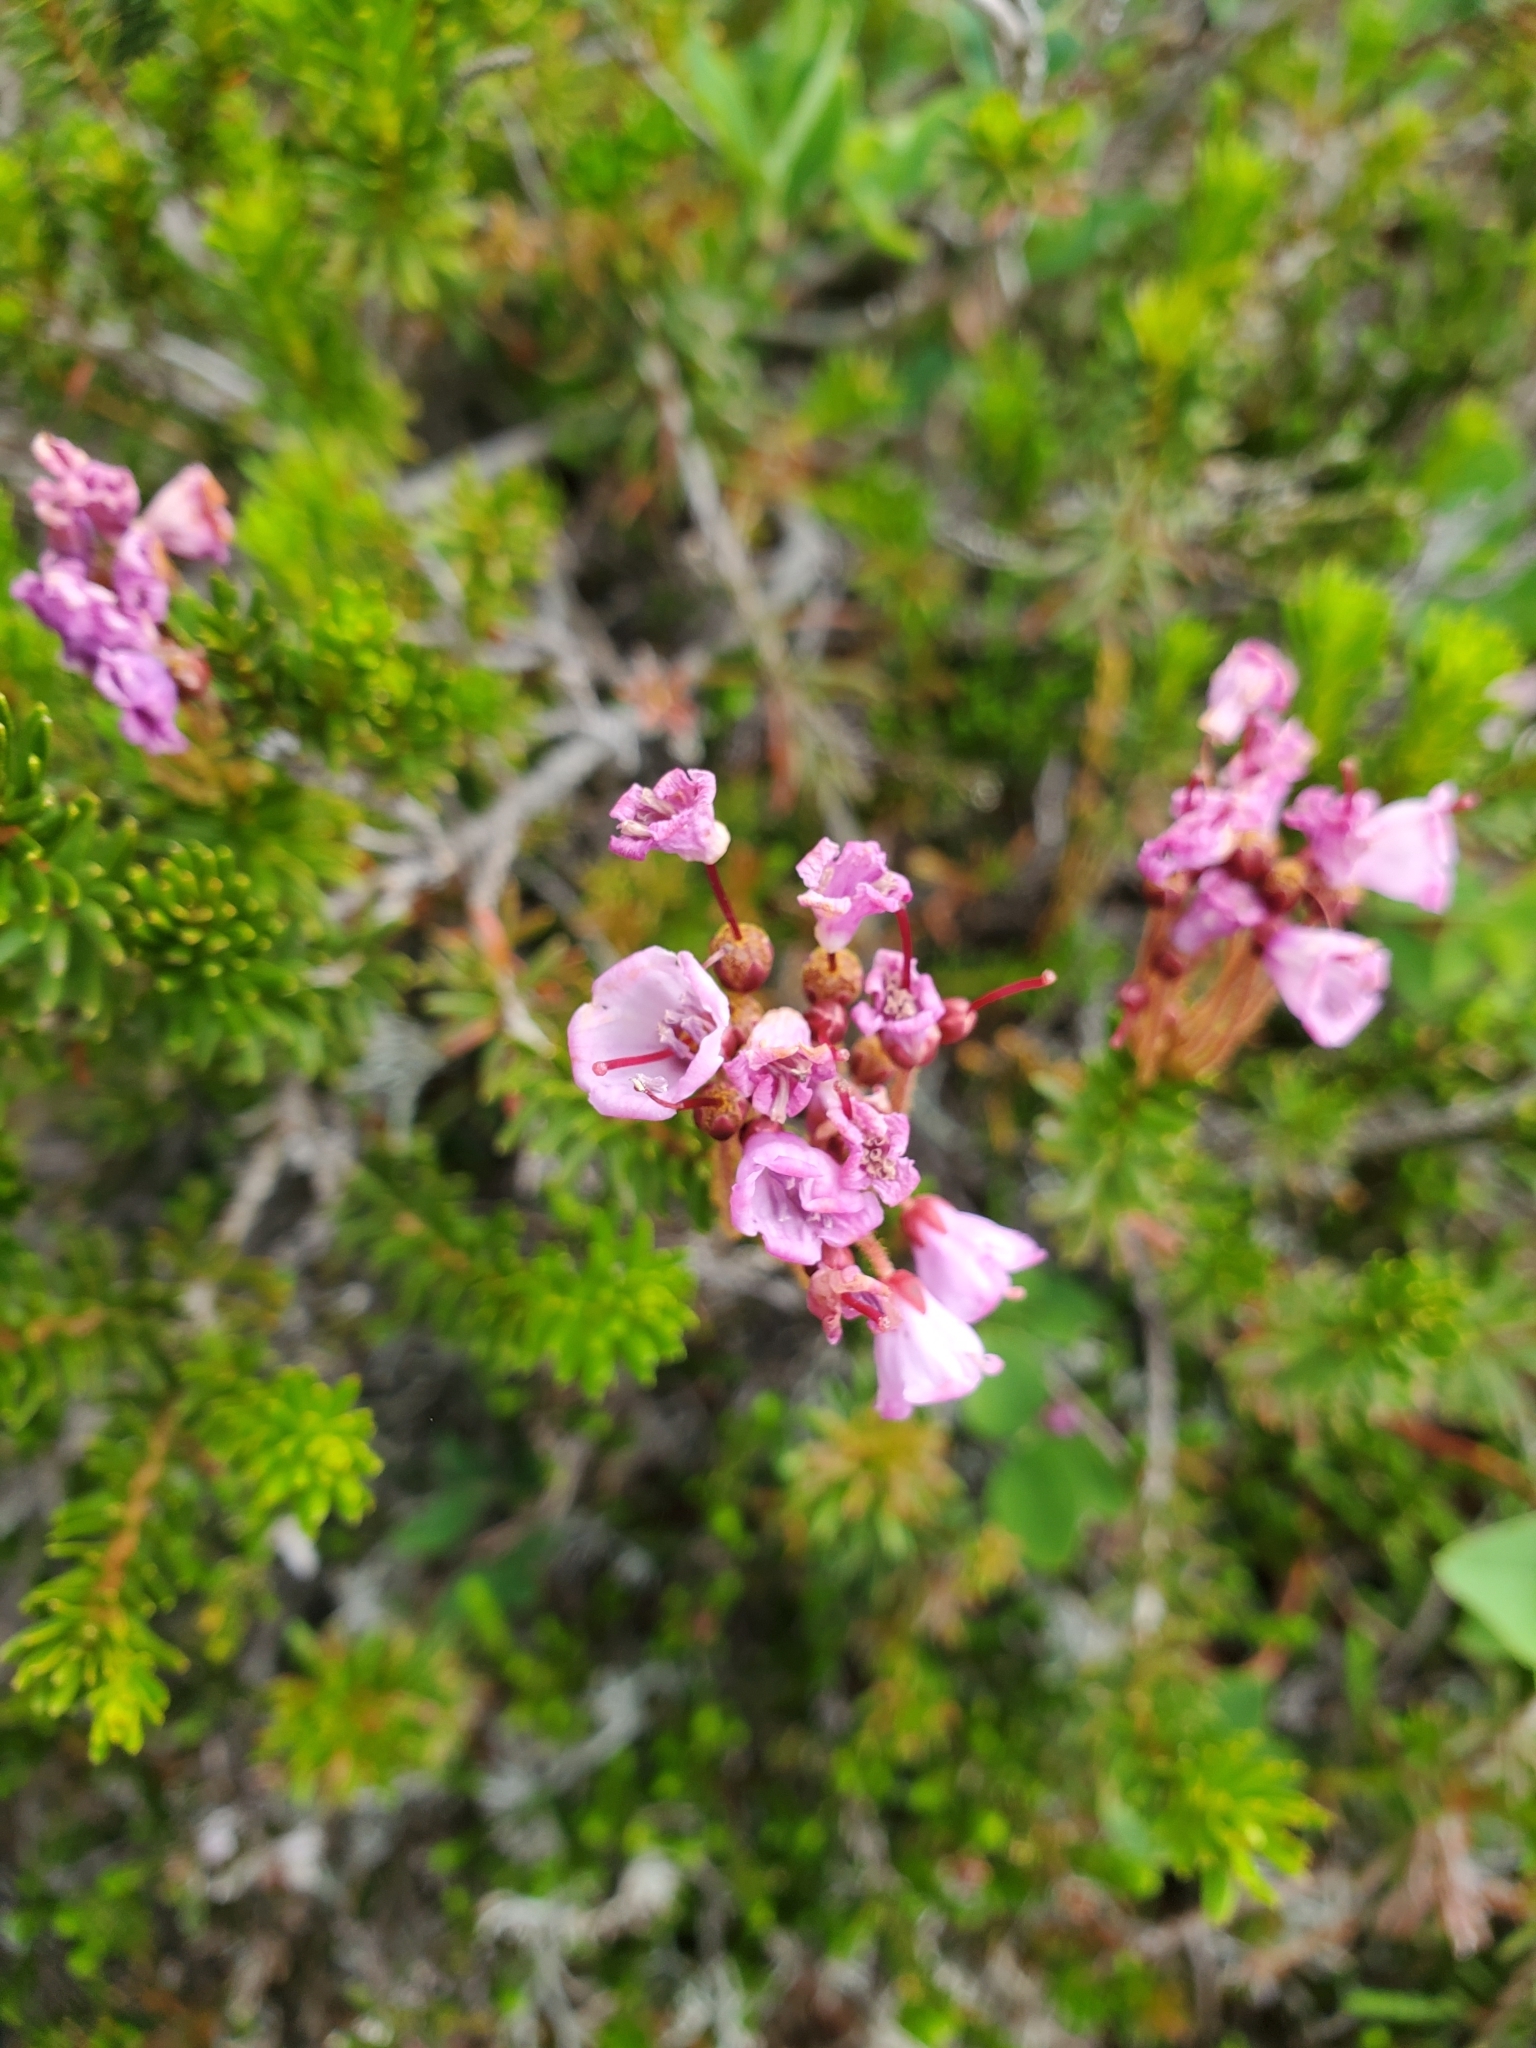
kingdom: Plantae
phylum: Tracheophyta
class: Magnoliopsida
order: Ericales
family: Ericaceae
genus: Phyllodoce
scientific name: Phyllodoce empetriformis
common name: Pink mountain heather
